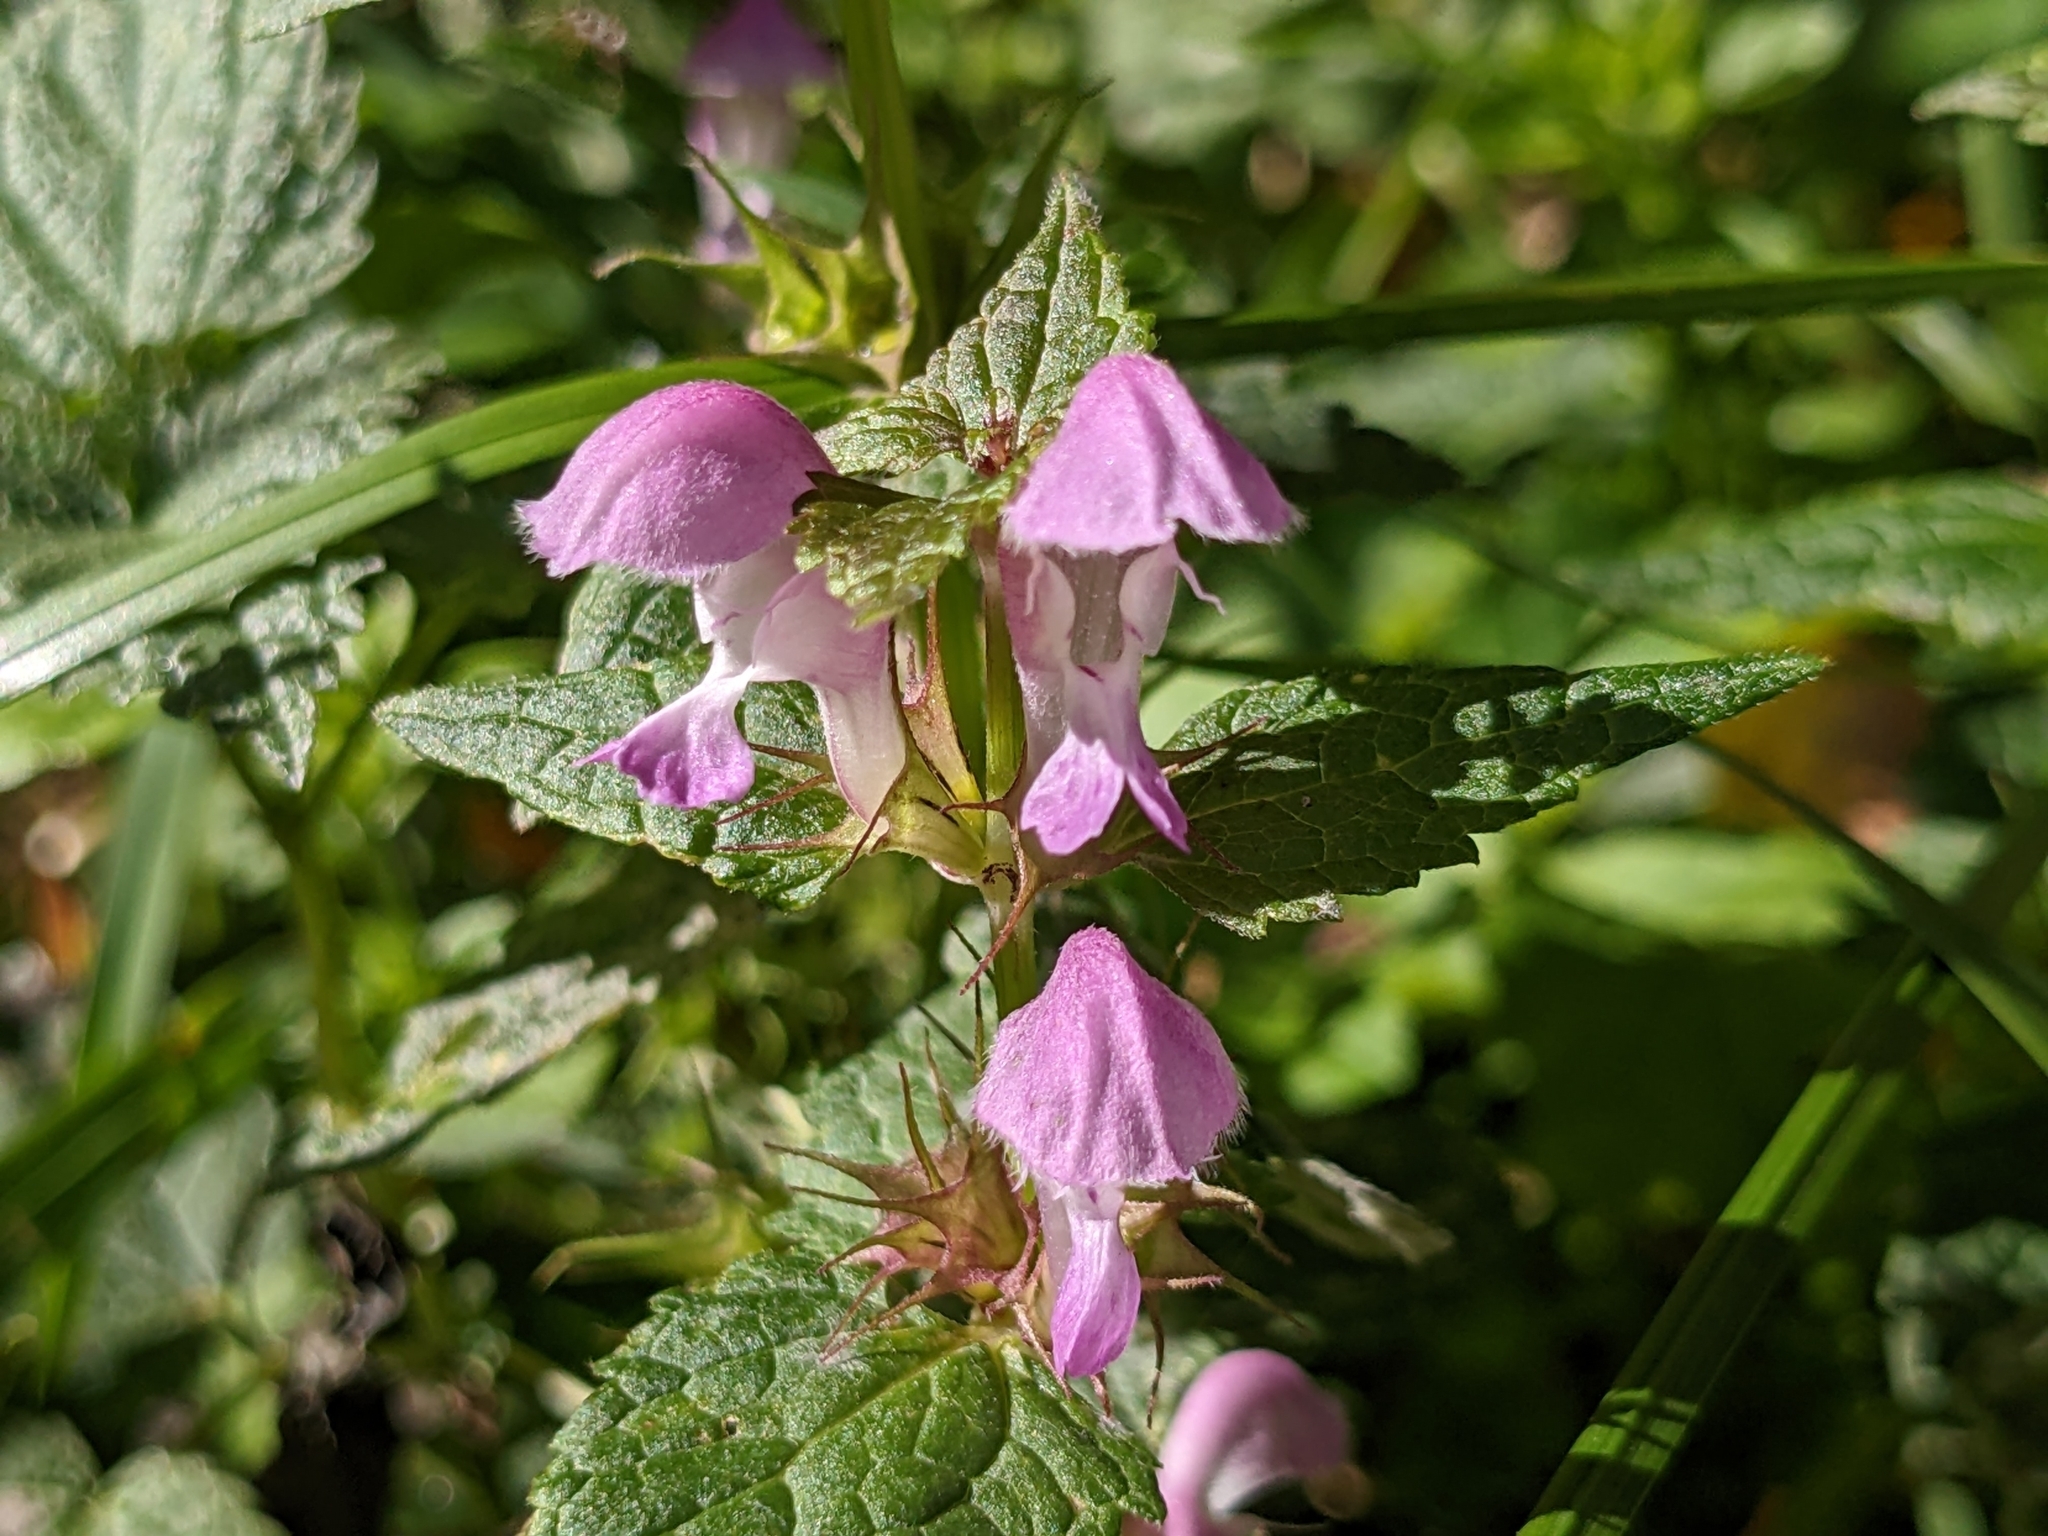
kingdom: Plantae
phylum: Tracheophyta
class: Magnoliopsida
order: Lamiales
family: Lamiaceae
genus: Lamium
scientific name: Lamium maculatum
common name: Spotted dead-nettle
